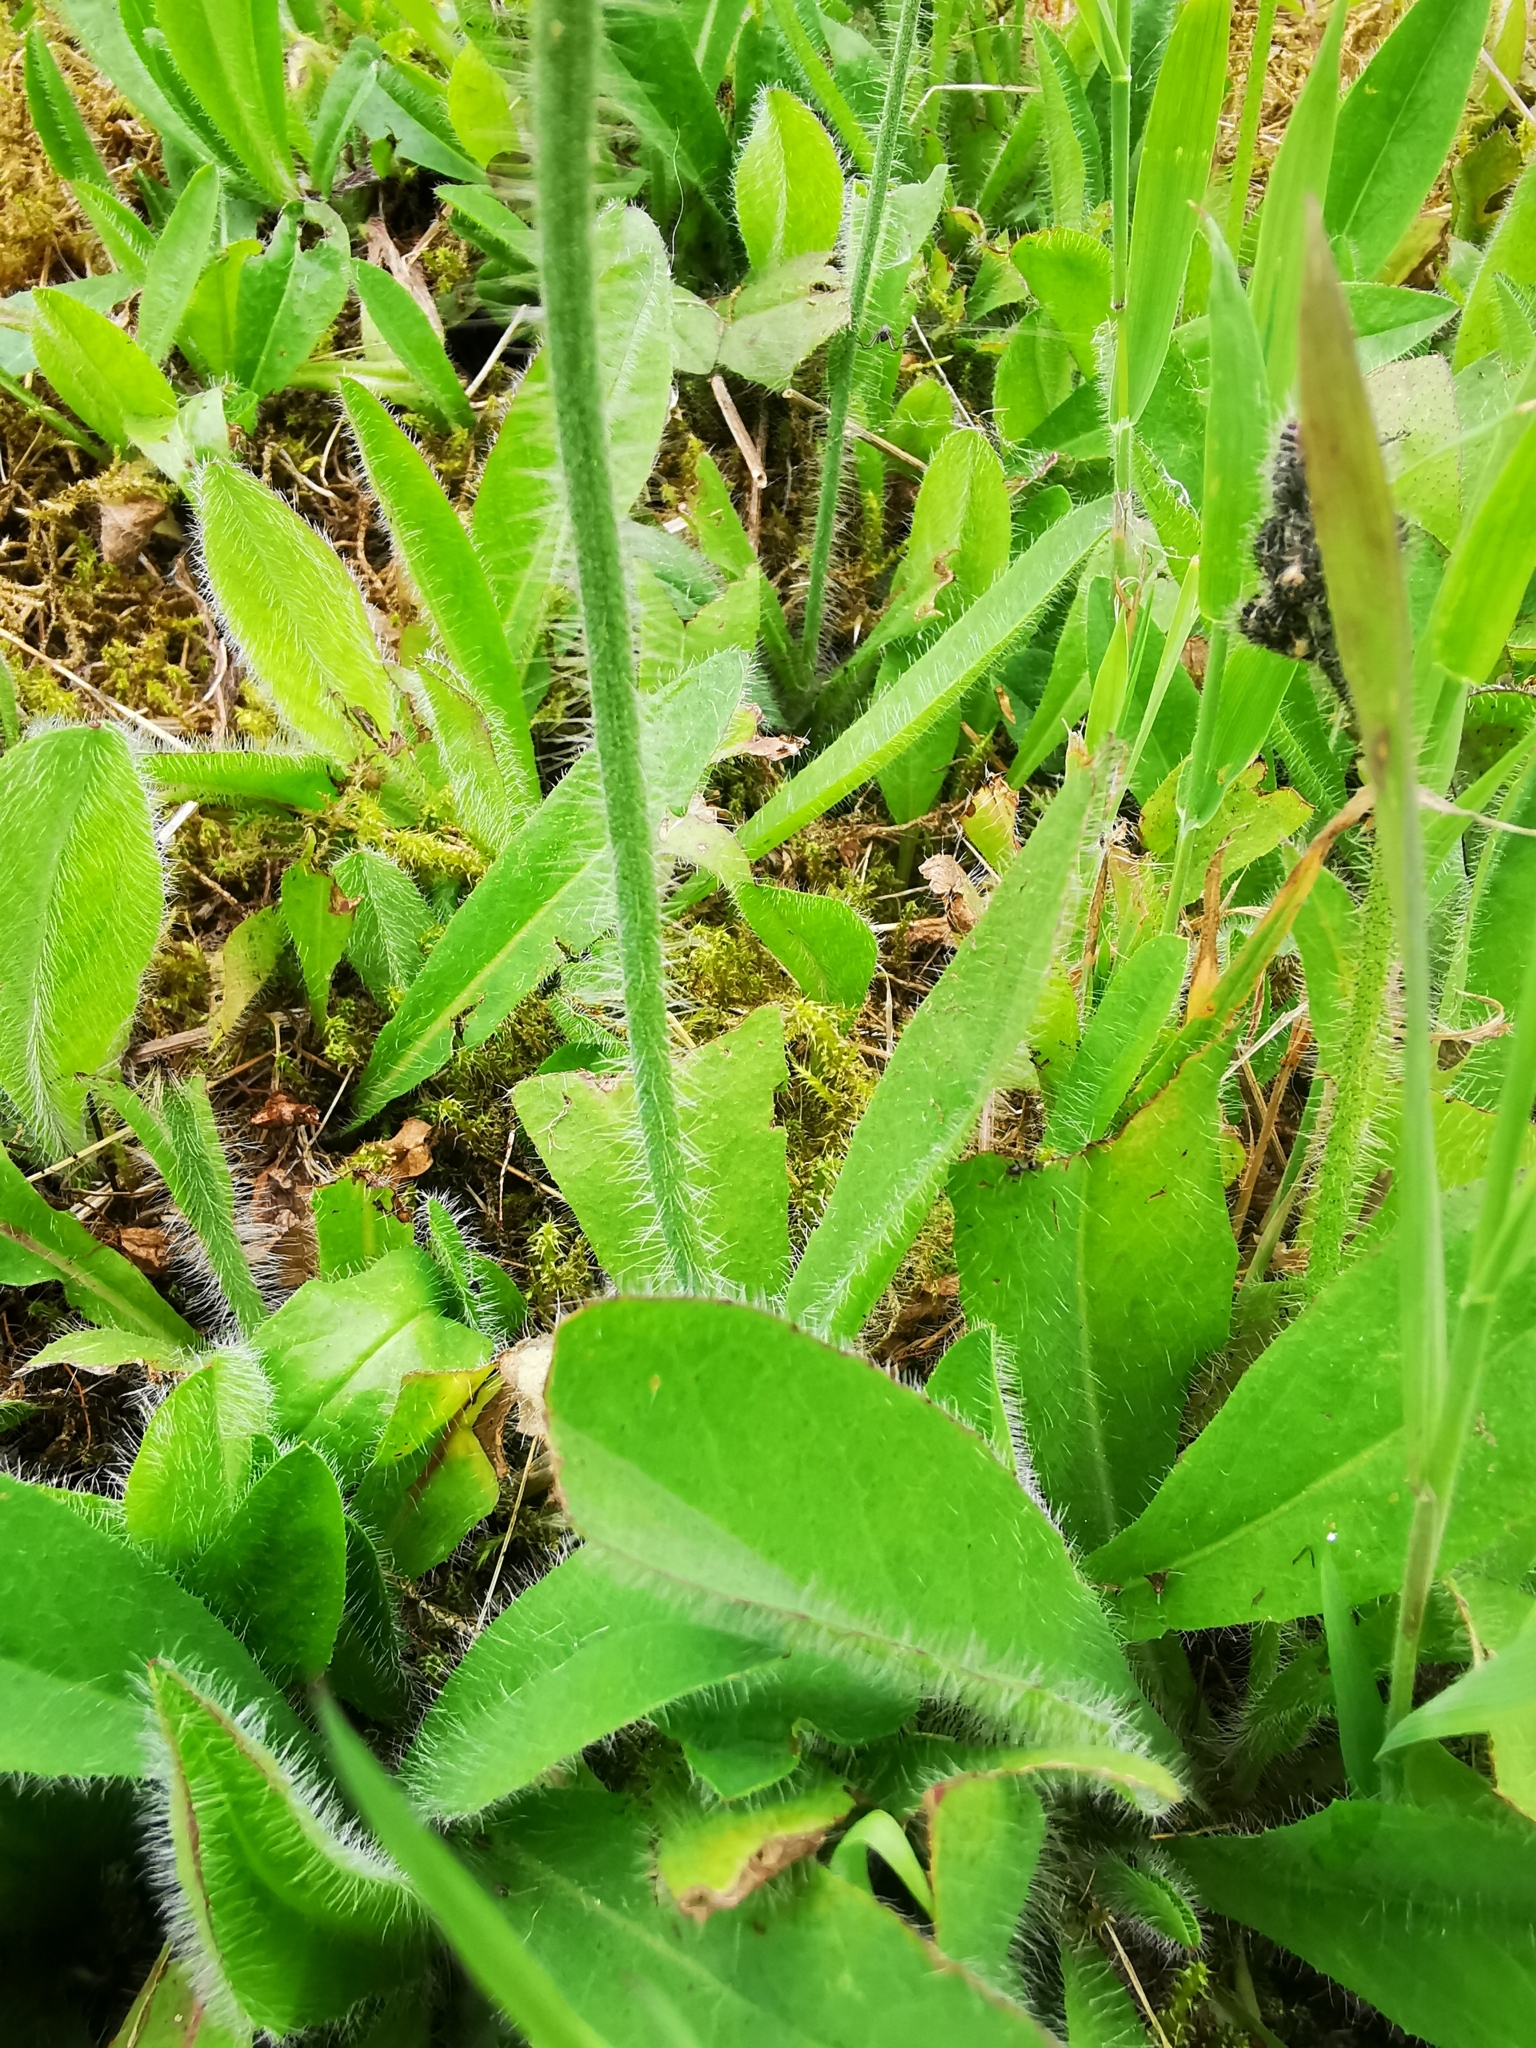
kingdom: Plantae
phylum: Tracheophyta
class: Magnoliopsida
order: Asterales
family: Asteraceae
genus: Pilosella
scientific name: Pilosella aurantiaca
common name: Fox-and-cubs
